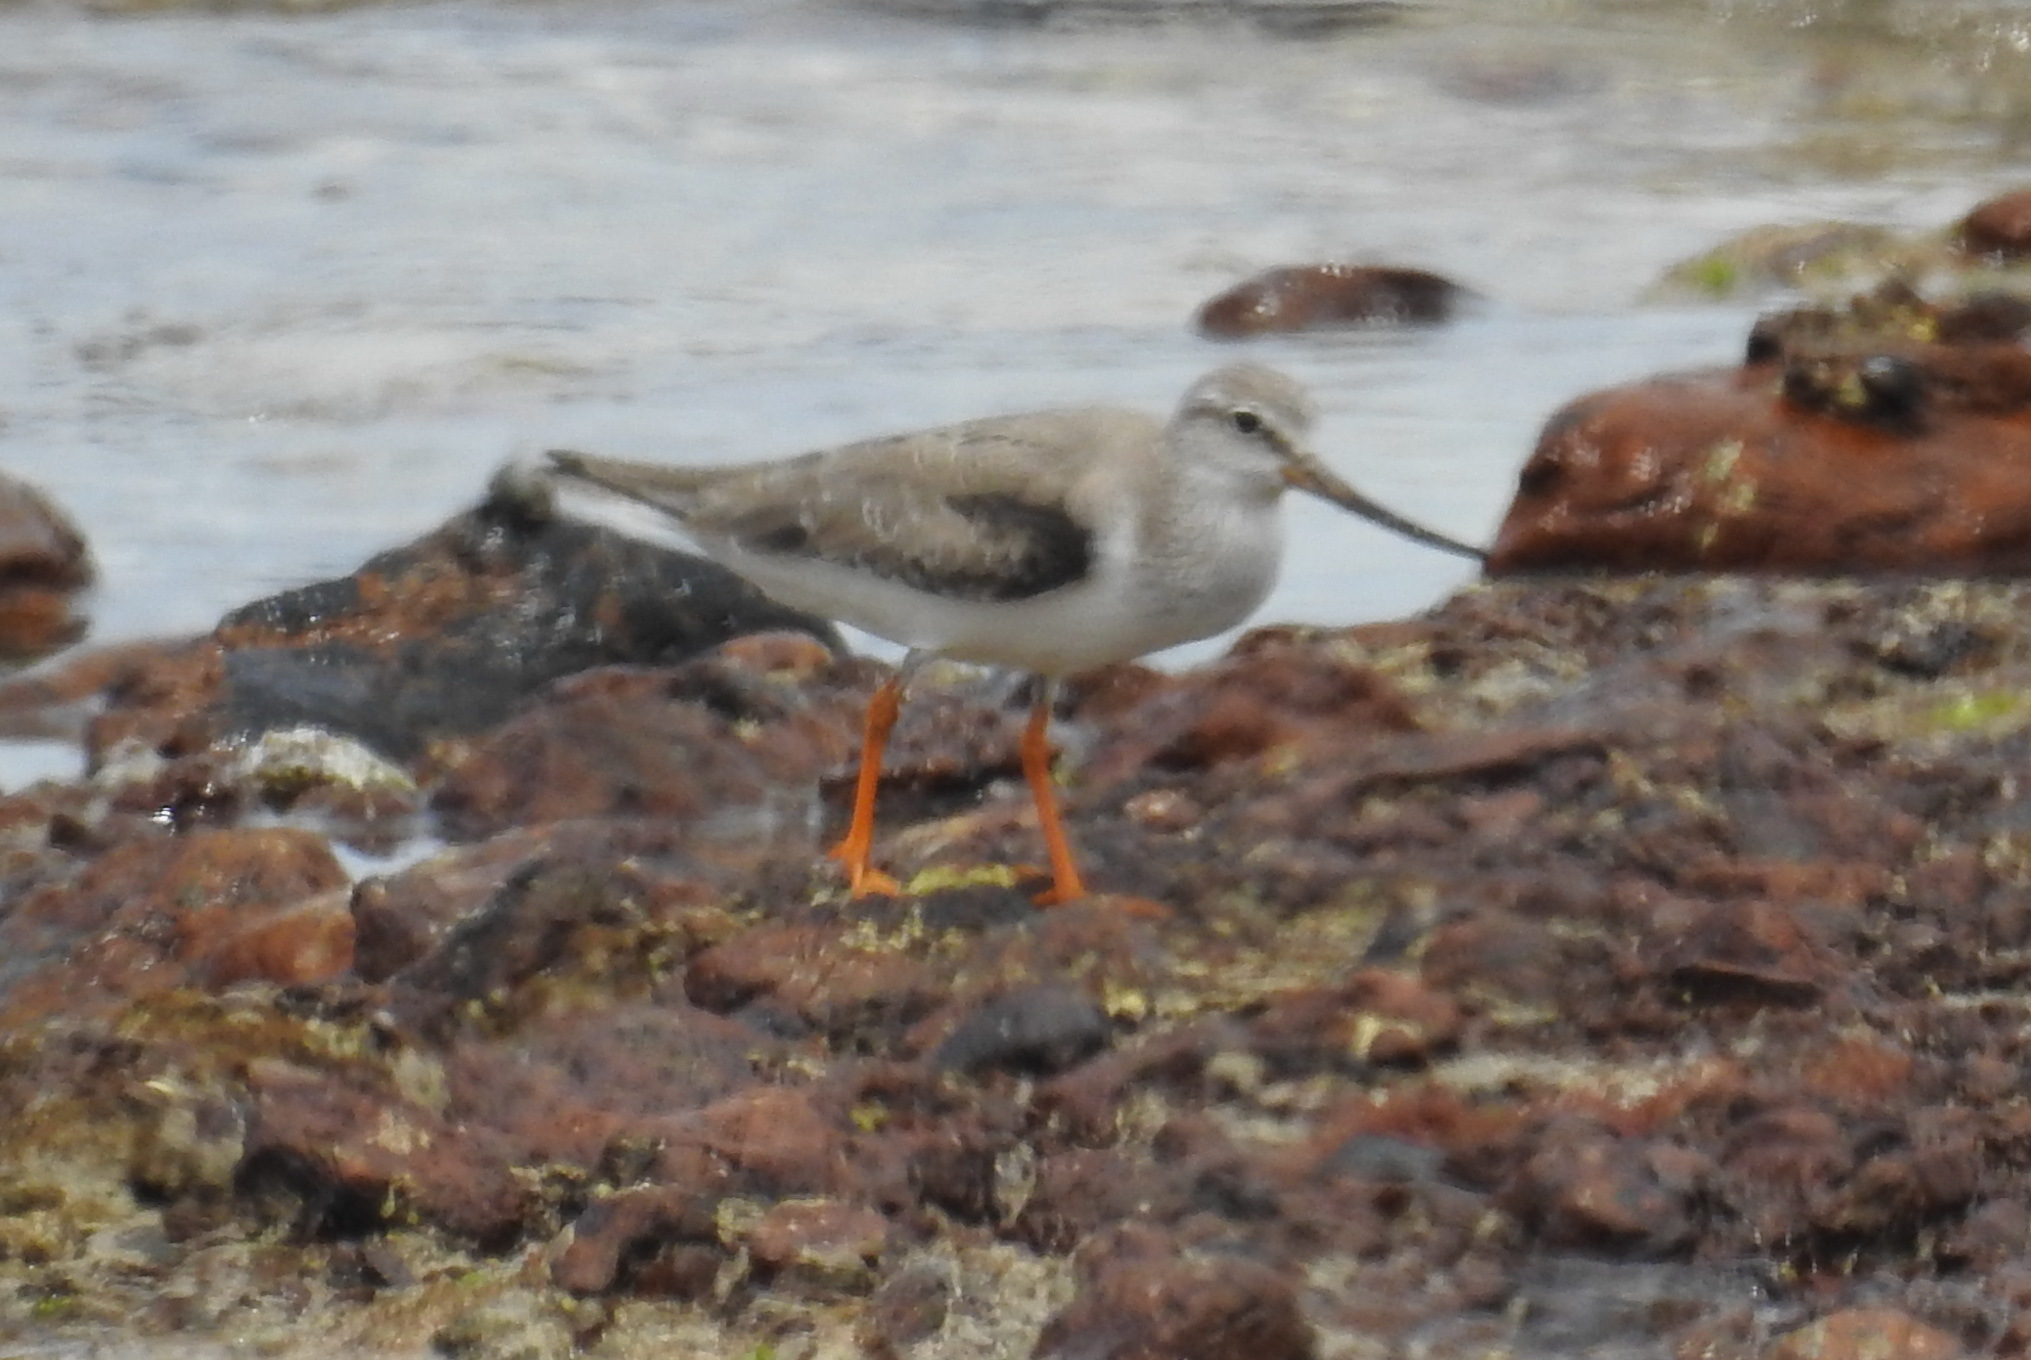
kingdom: Animalia
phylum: Chordata
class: Aves
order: Charadriiformes
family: Scolopacidae
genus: Xenus
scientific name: Xenus cinereus
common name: Terek sandpiper
